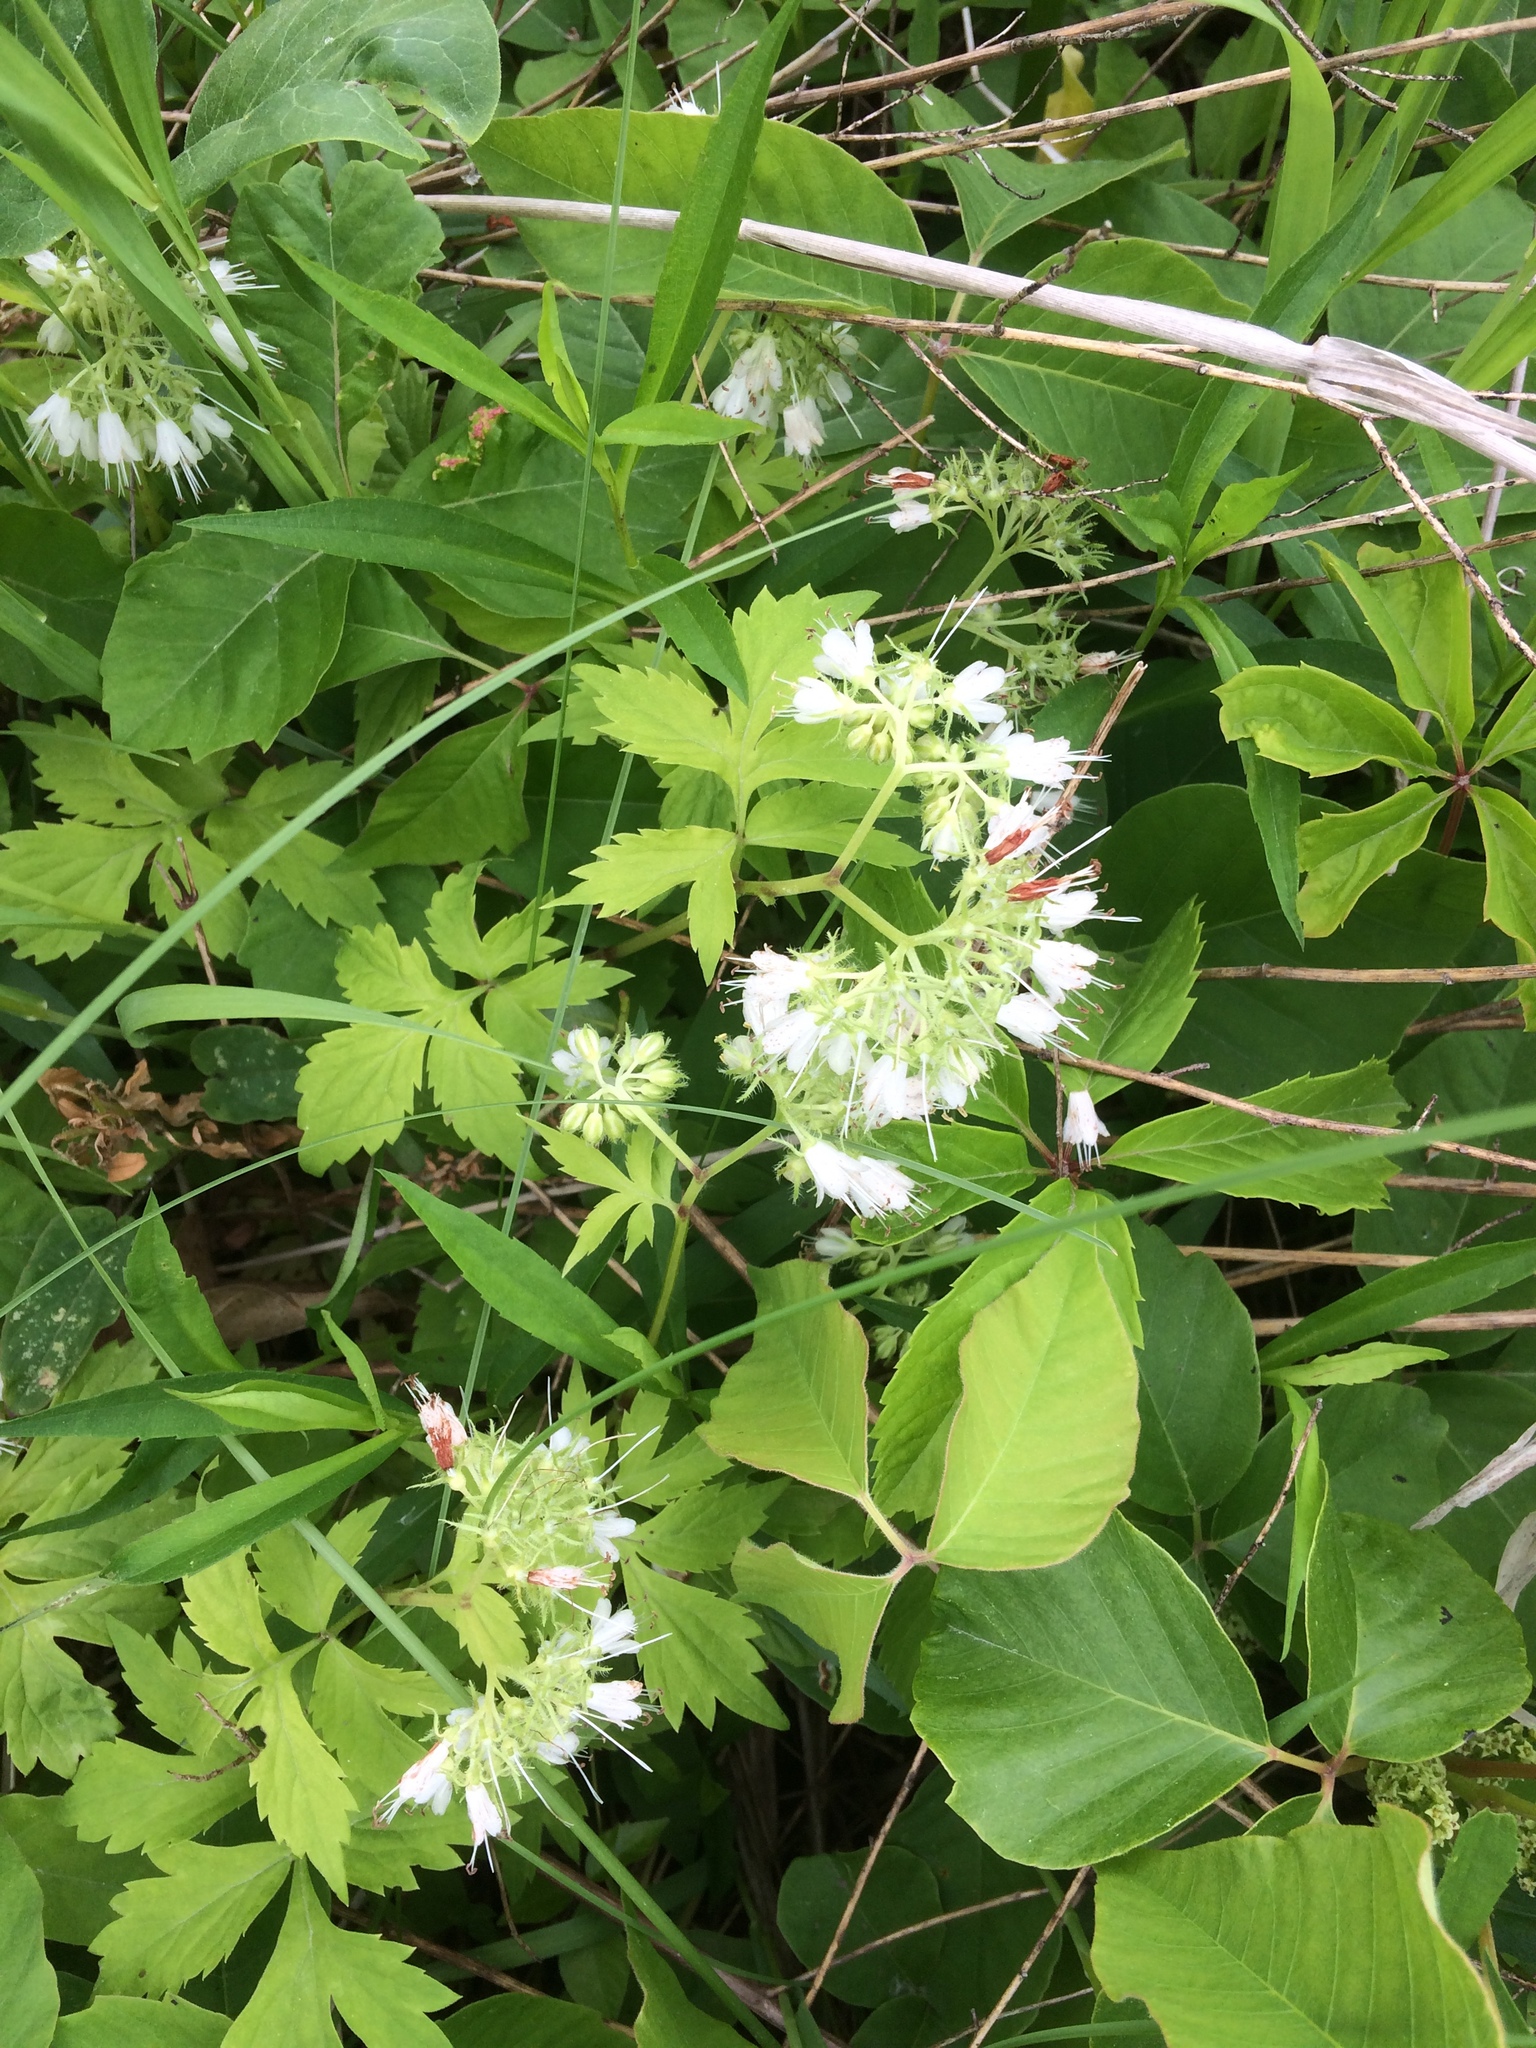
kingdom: Plantae
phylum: Tracheophyta
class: Magnoliopsida
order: Boraginales
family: Hydrophyllaceae
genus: Hydrophyllum
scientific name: Hydrophyllum virginianum
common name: Virginia waterleaf
